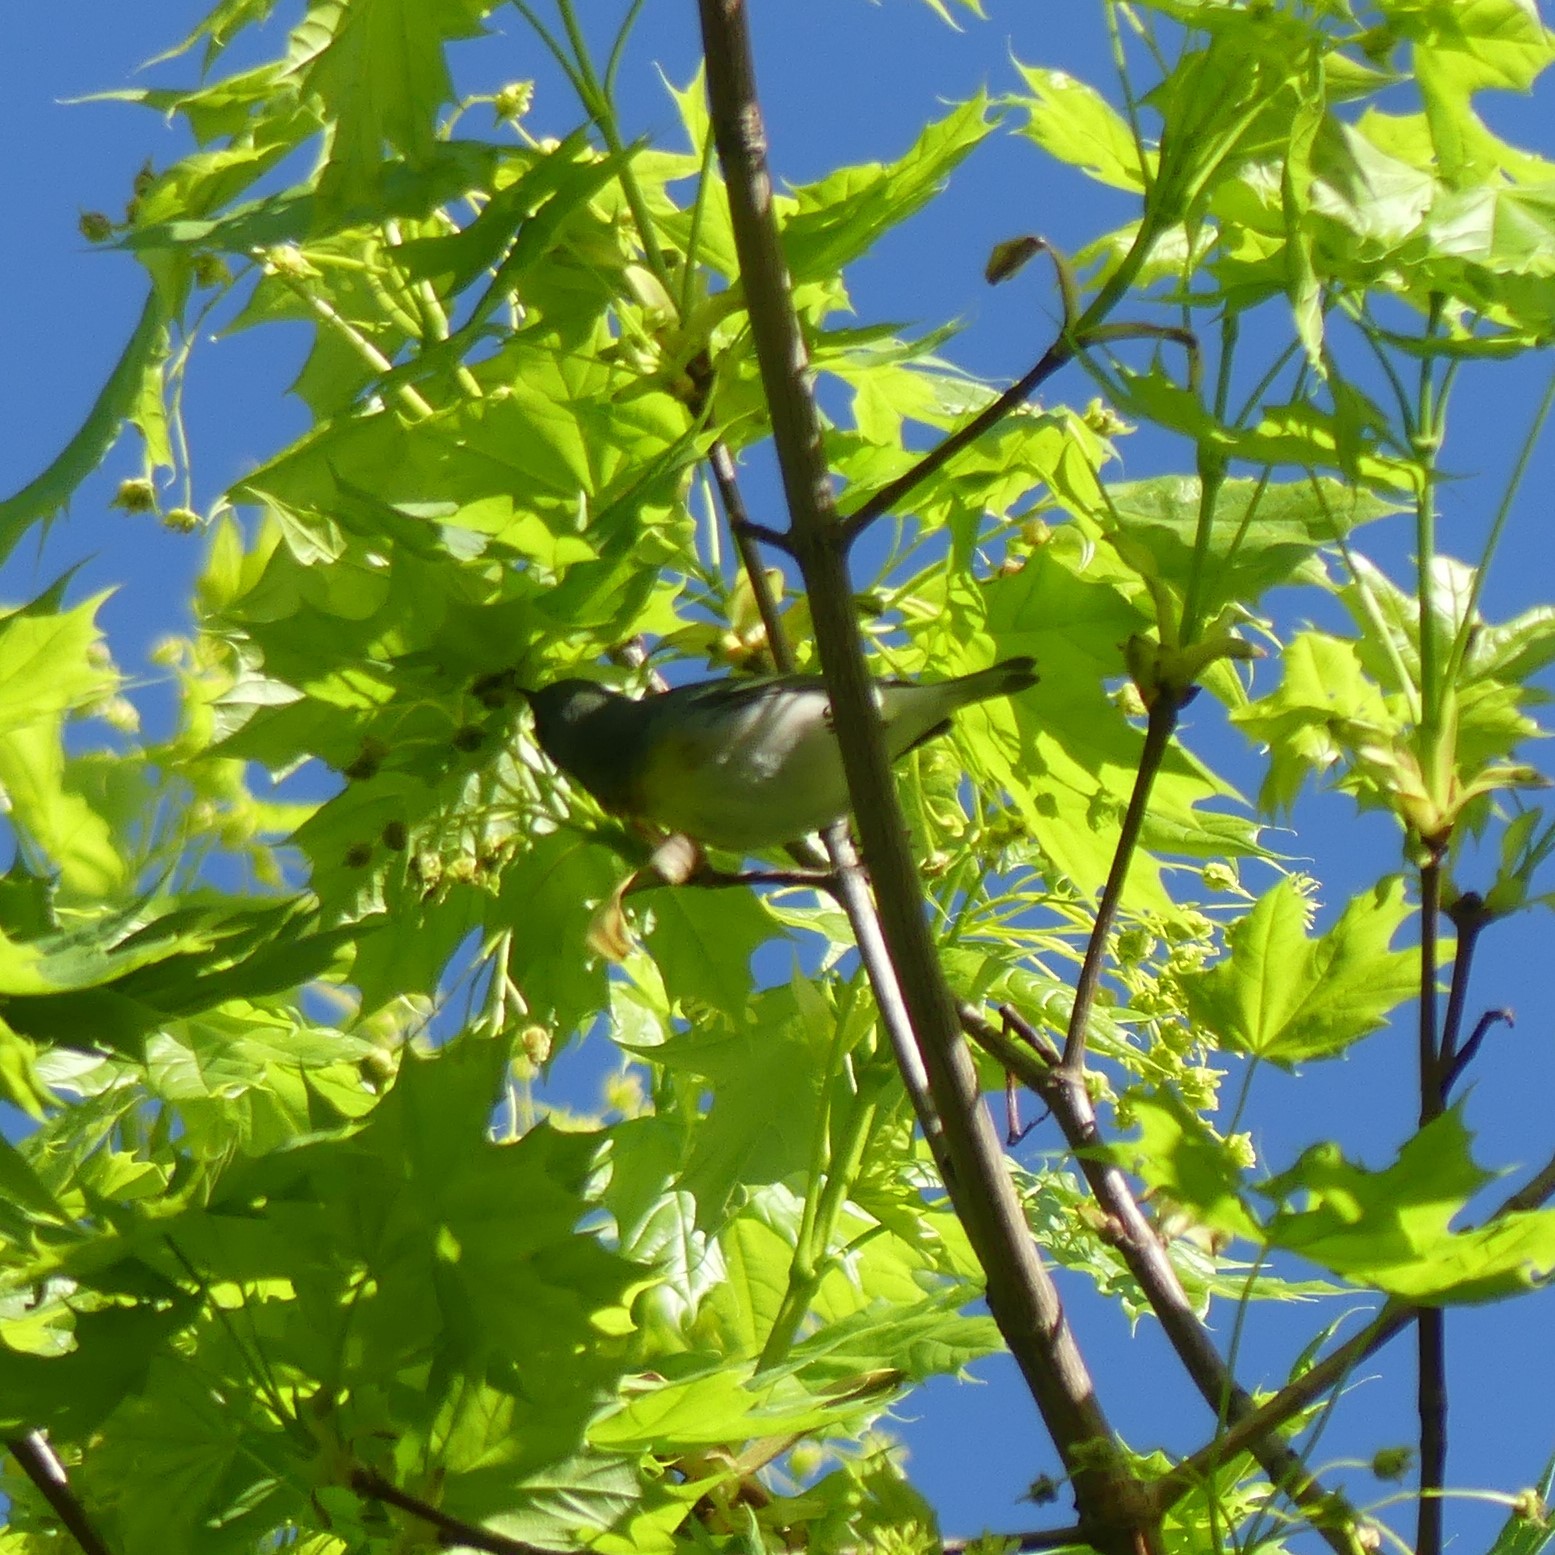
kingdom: Animalia
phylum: Chordata
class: Aves
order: Passeriformes
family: Parulidae
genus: Setophaga
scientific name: Setophaga americana
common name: Northern parula
